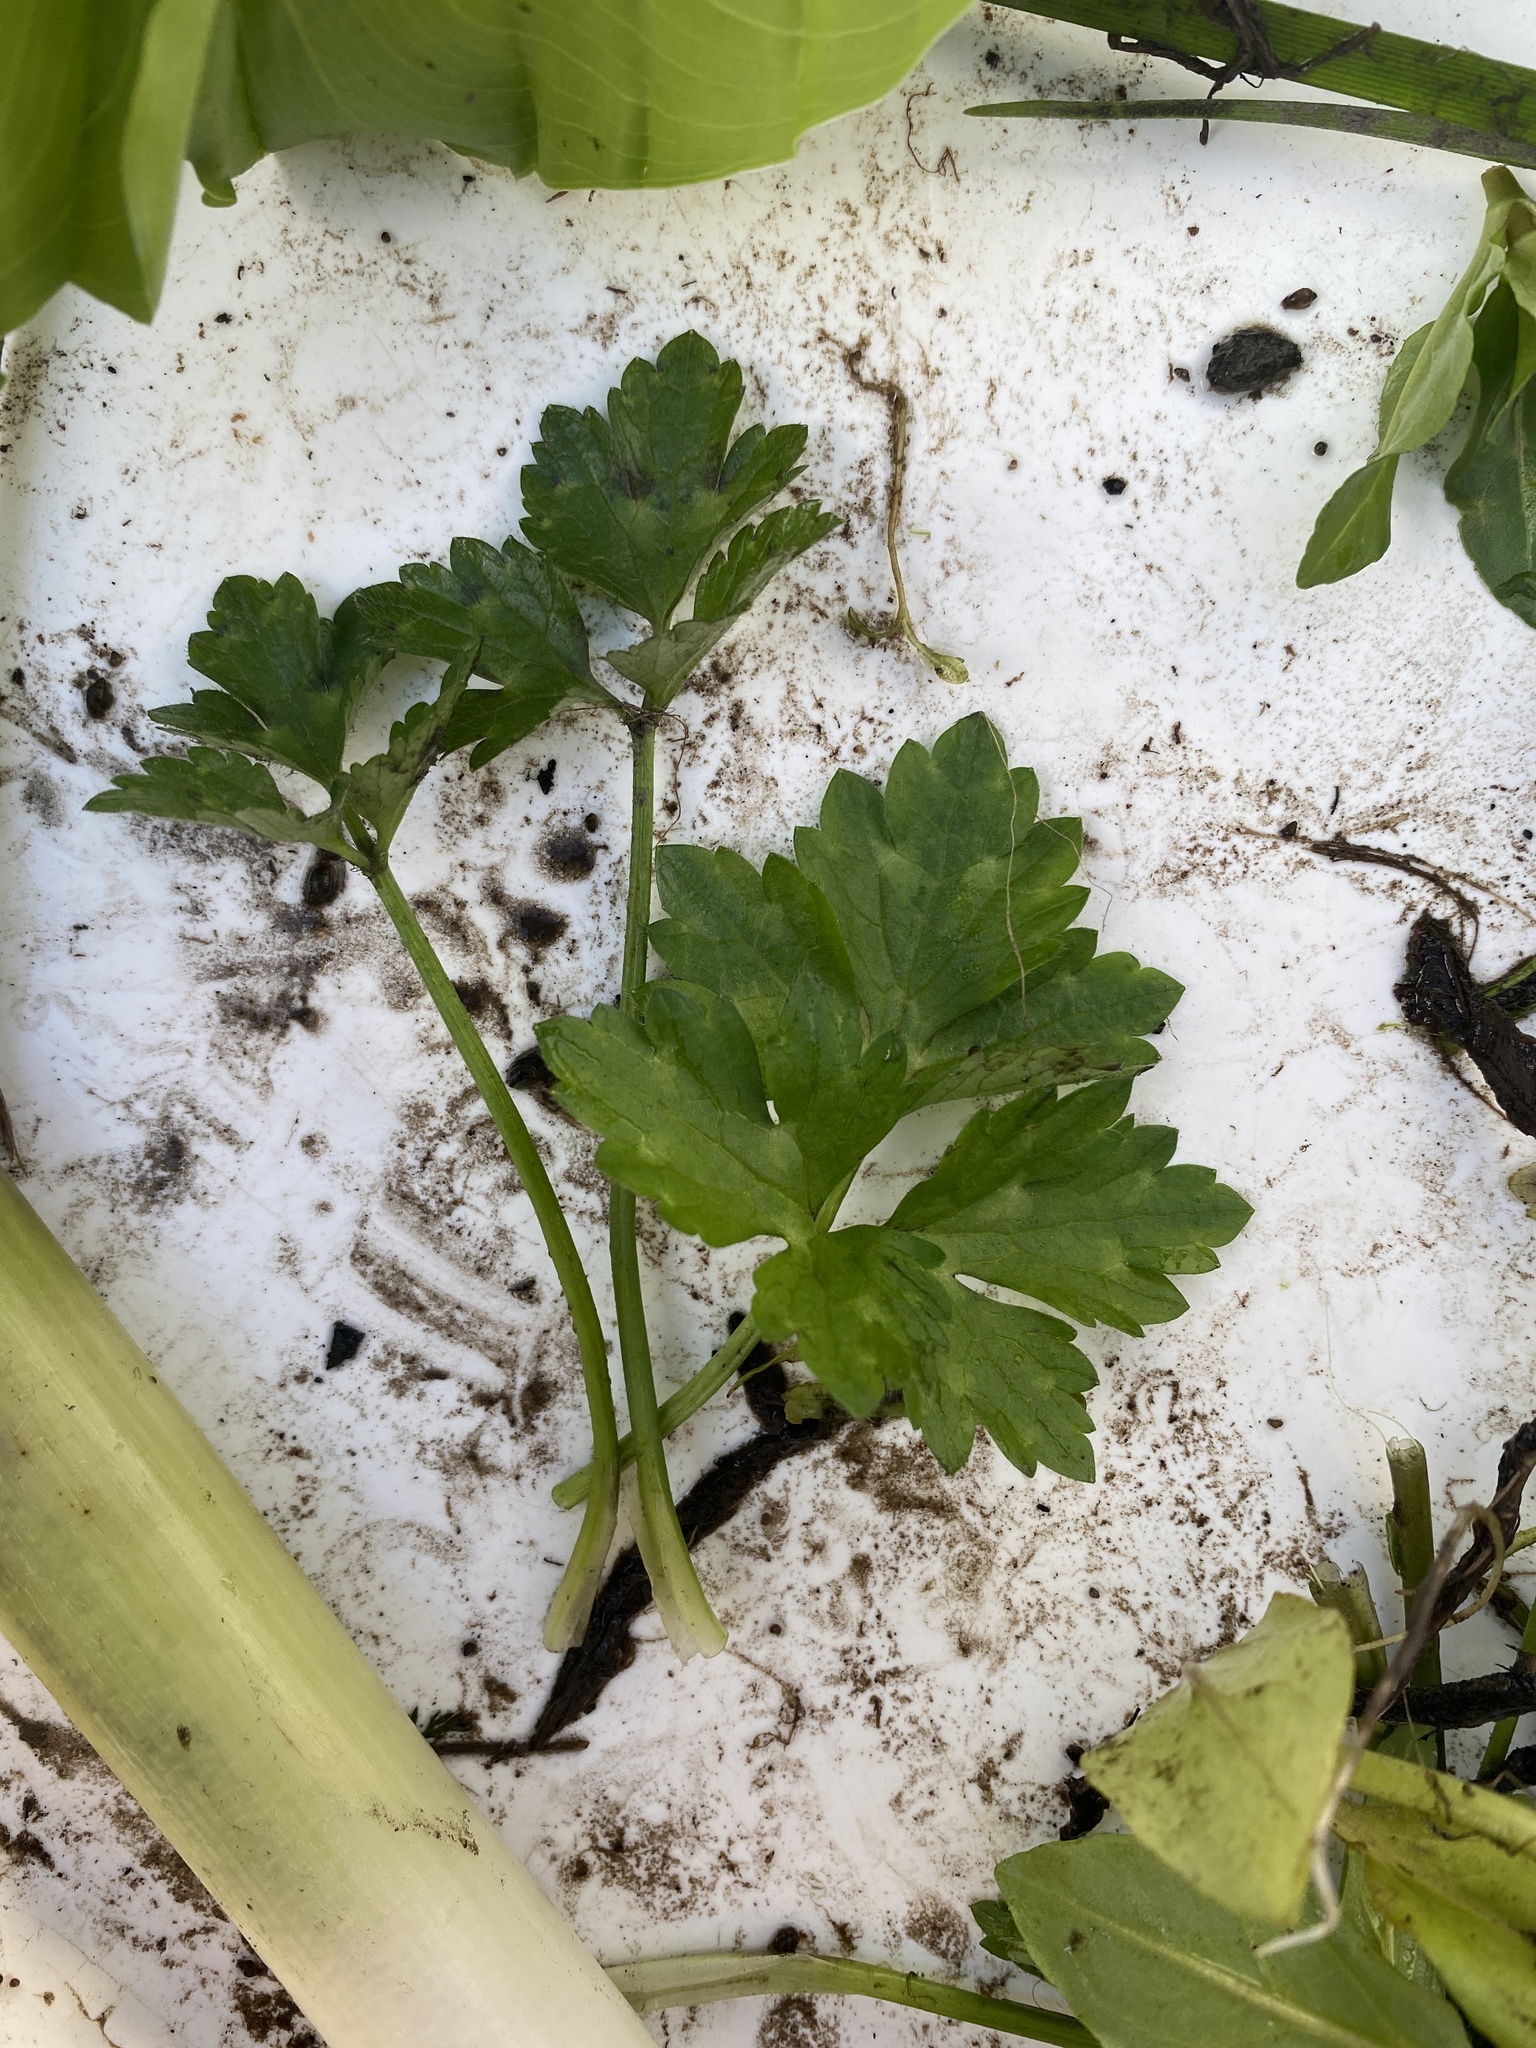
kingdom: Plantae
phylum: Tracheophyta
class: Magnoliopsida
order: Ranunculales
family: Ranunculaceae
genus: Ranunculus
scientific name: Ranunculus repens
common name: Creeping buttercup
